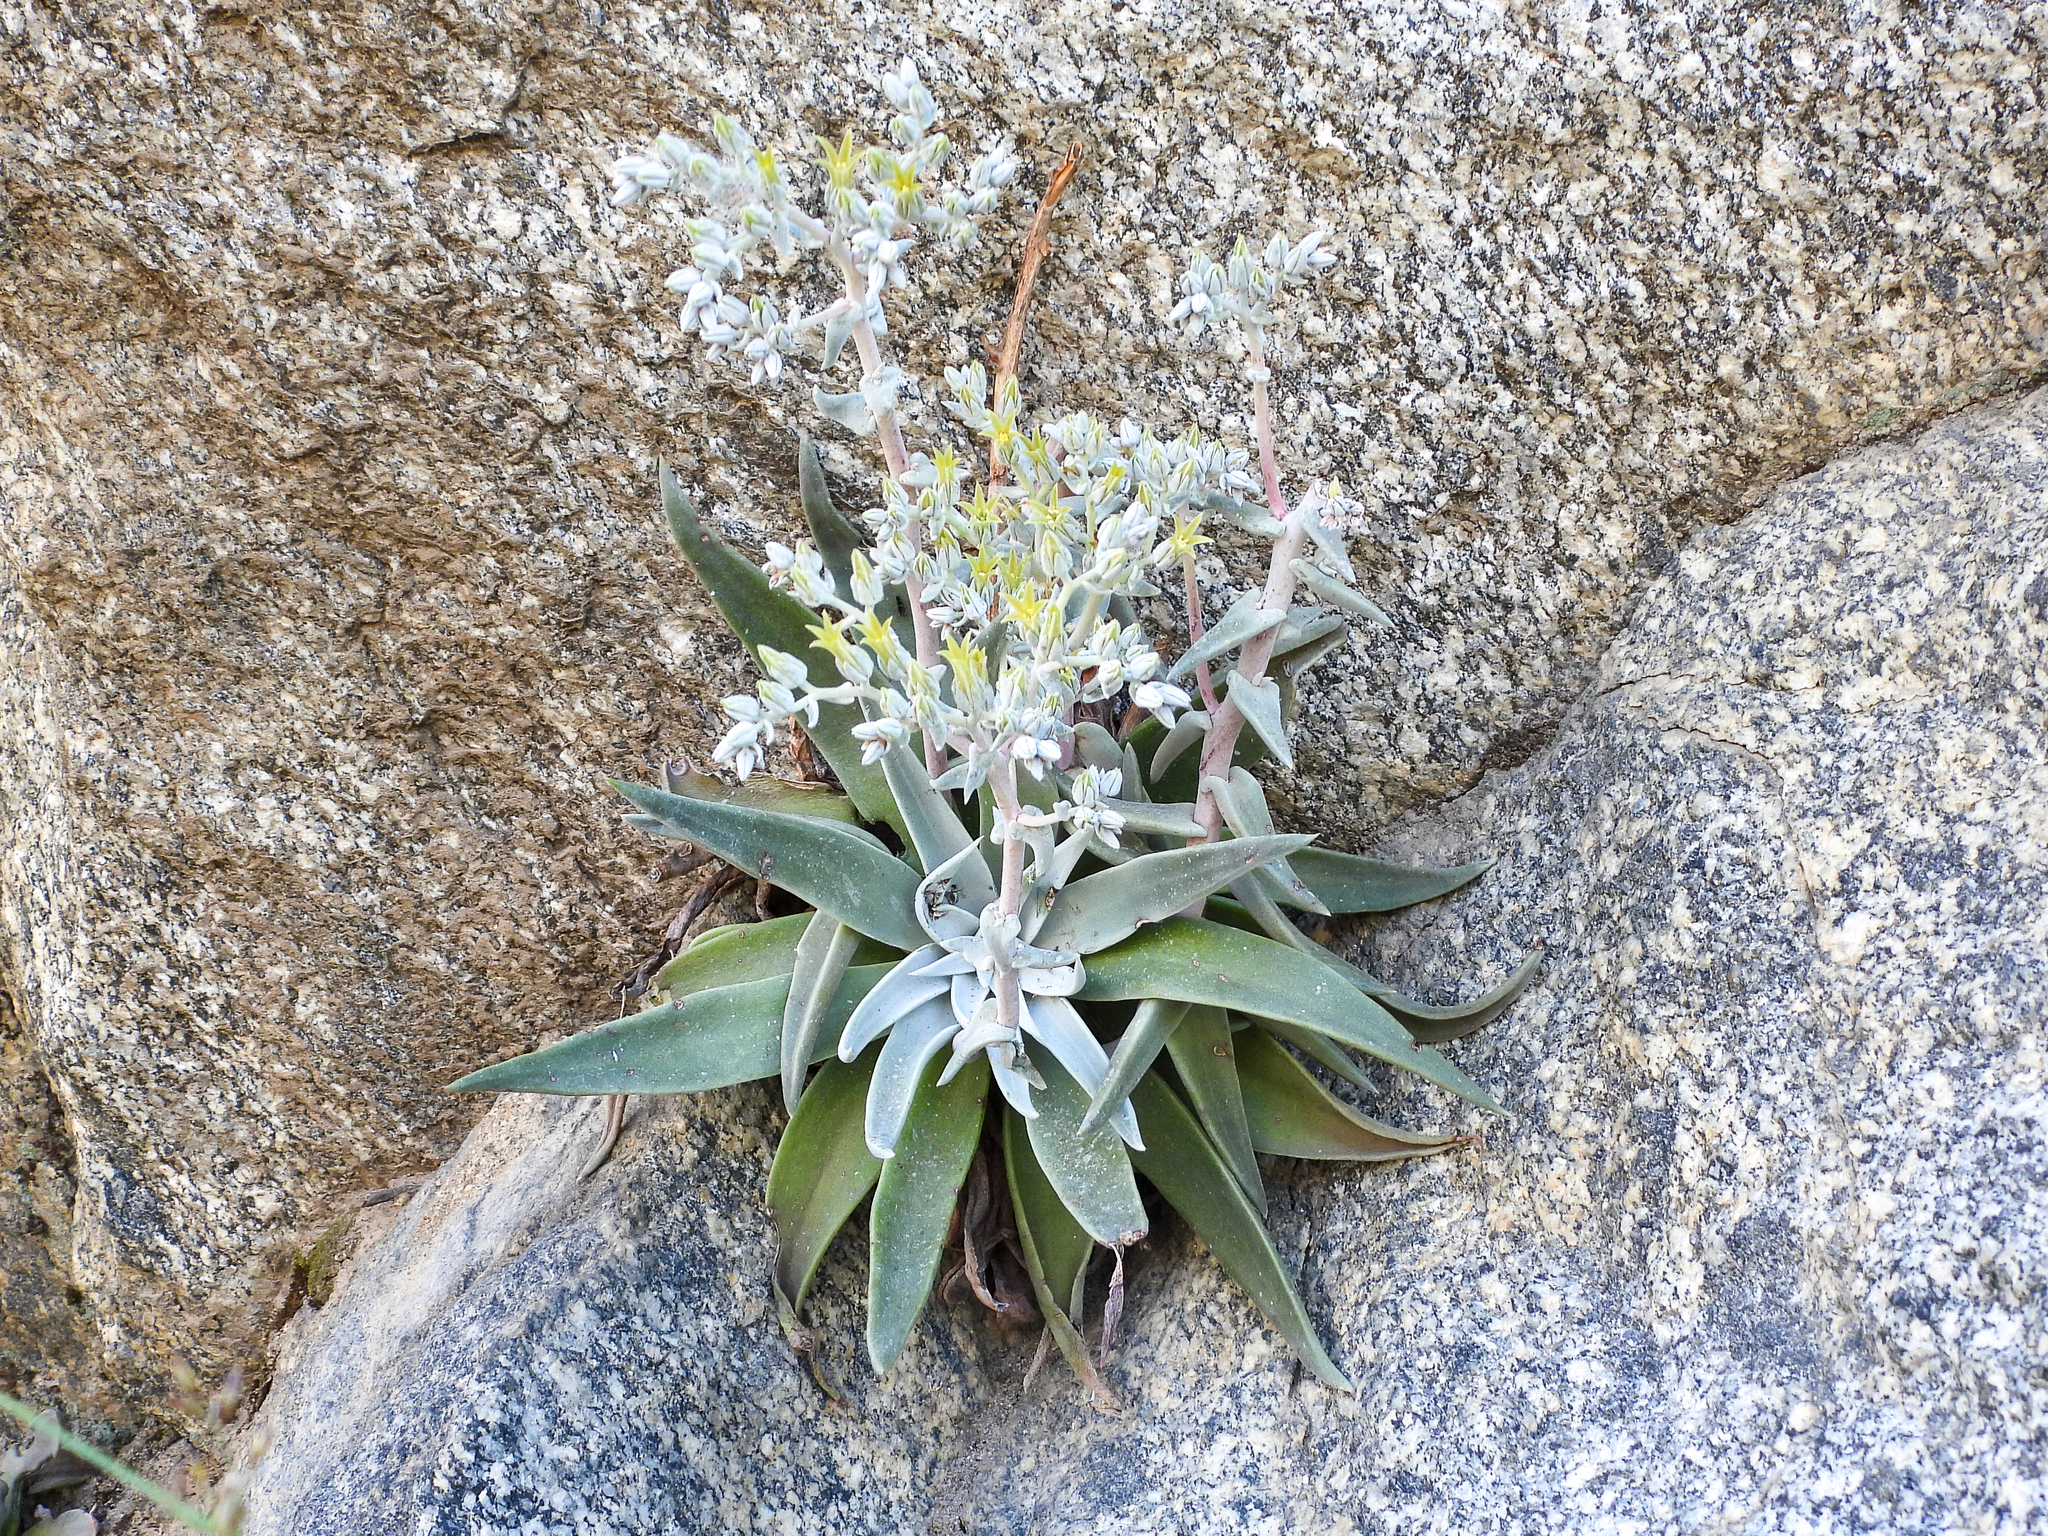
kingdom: Plantae
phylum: Tracheophyta
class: Magnoliopsida
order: Saxifragales
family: Crassulaceae
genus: Dudleya
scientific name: Dudleya abramsii
